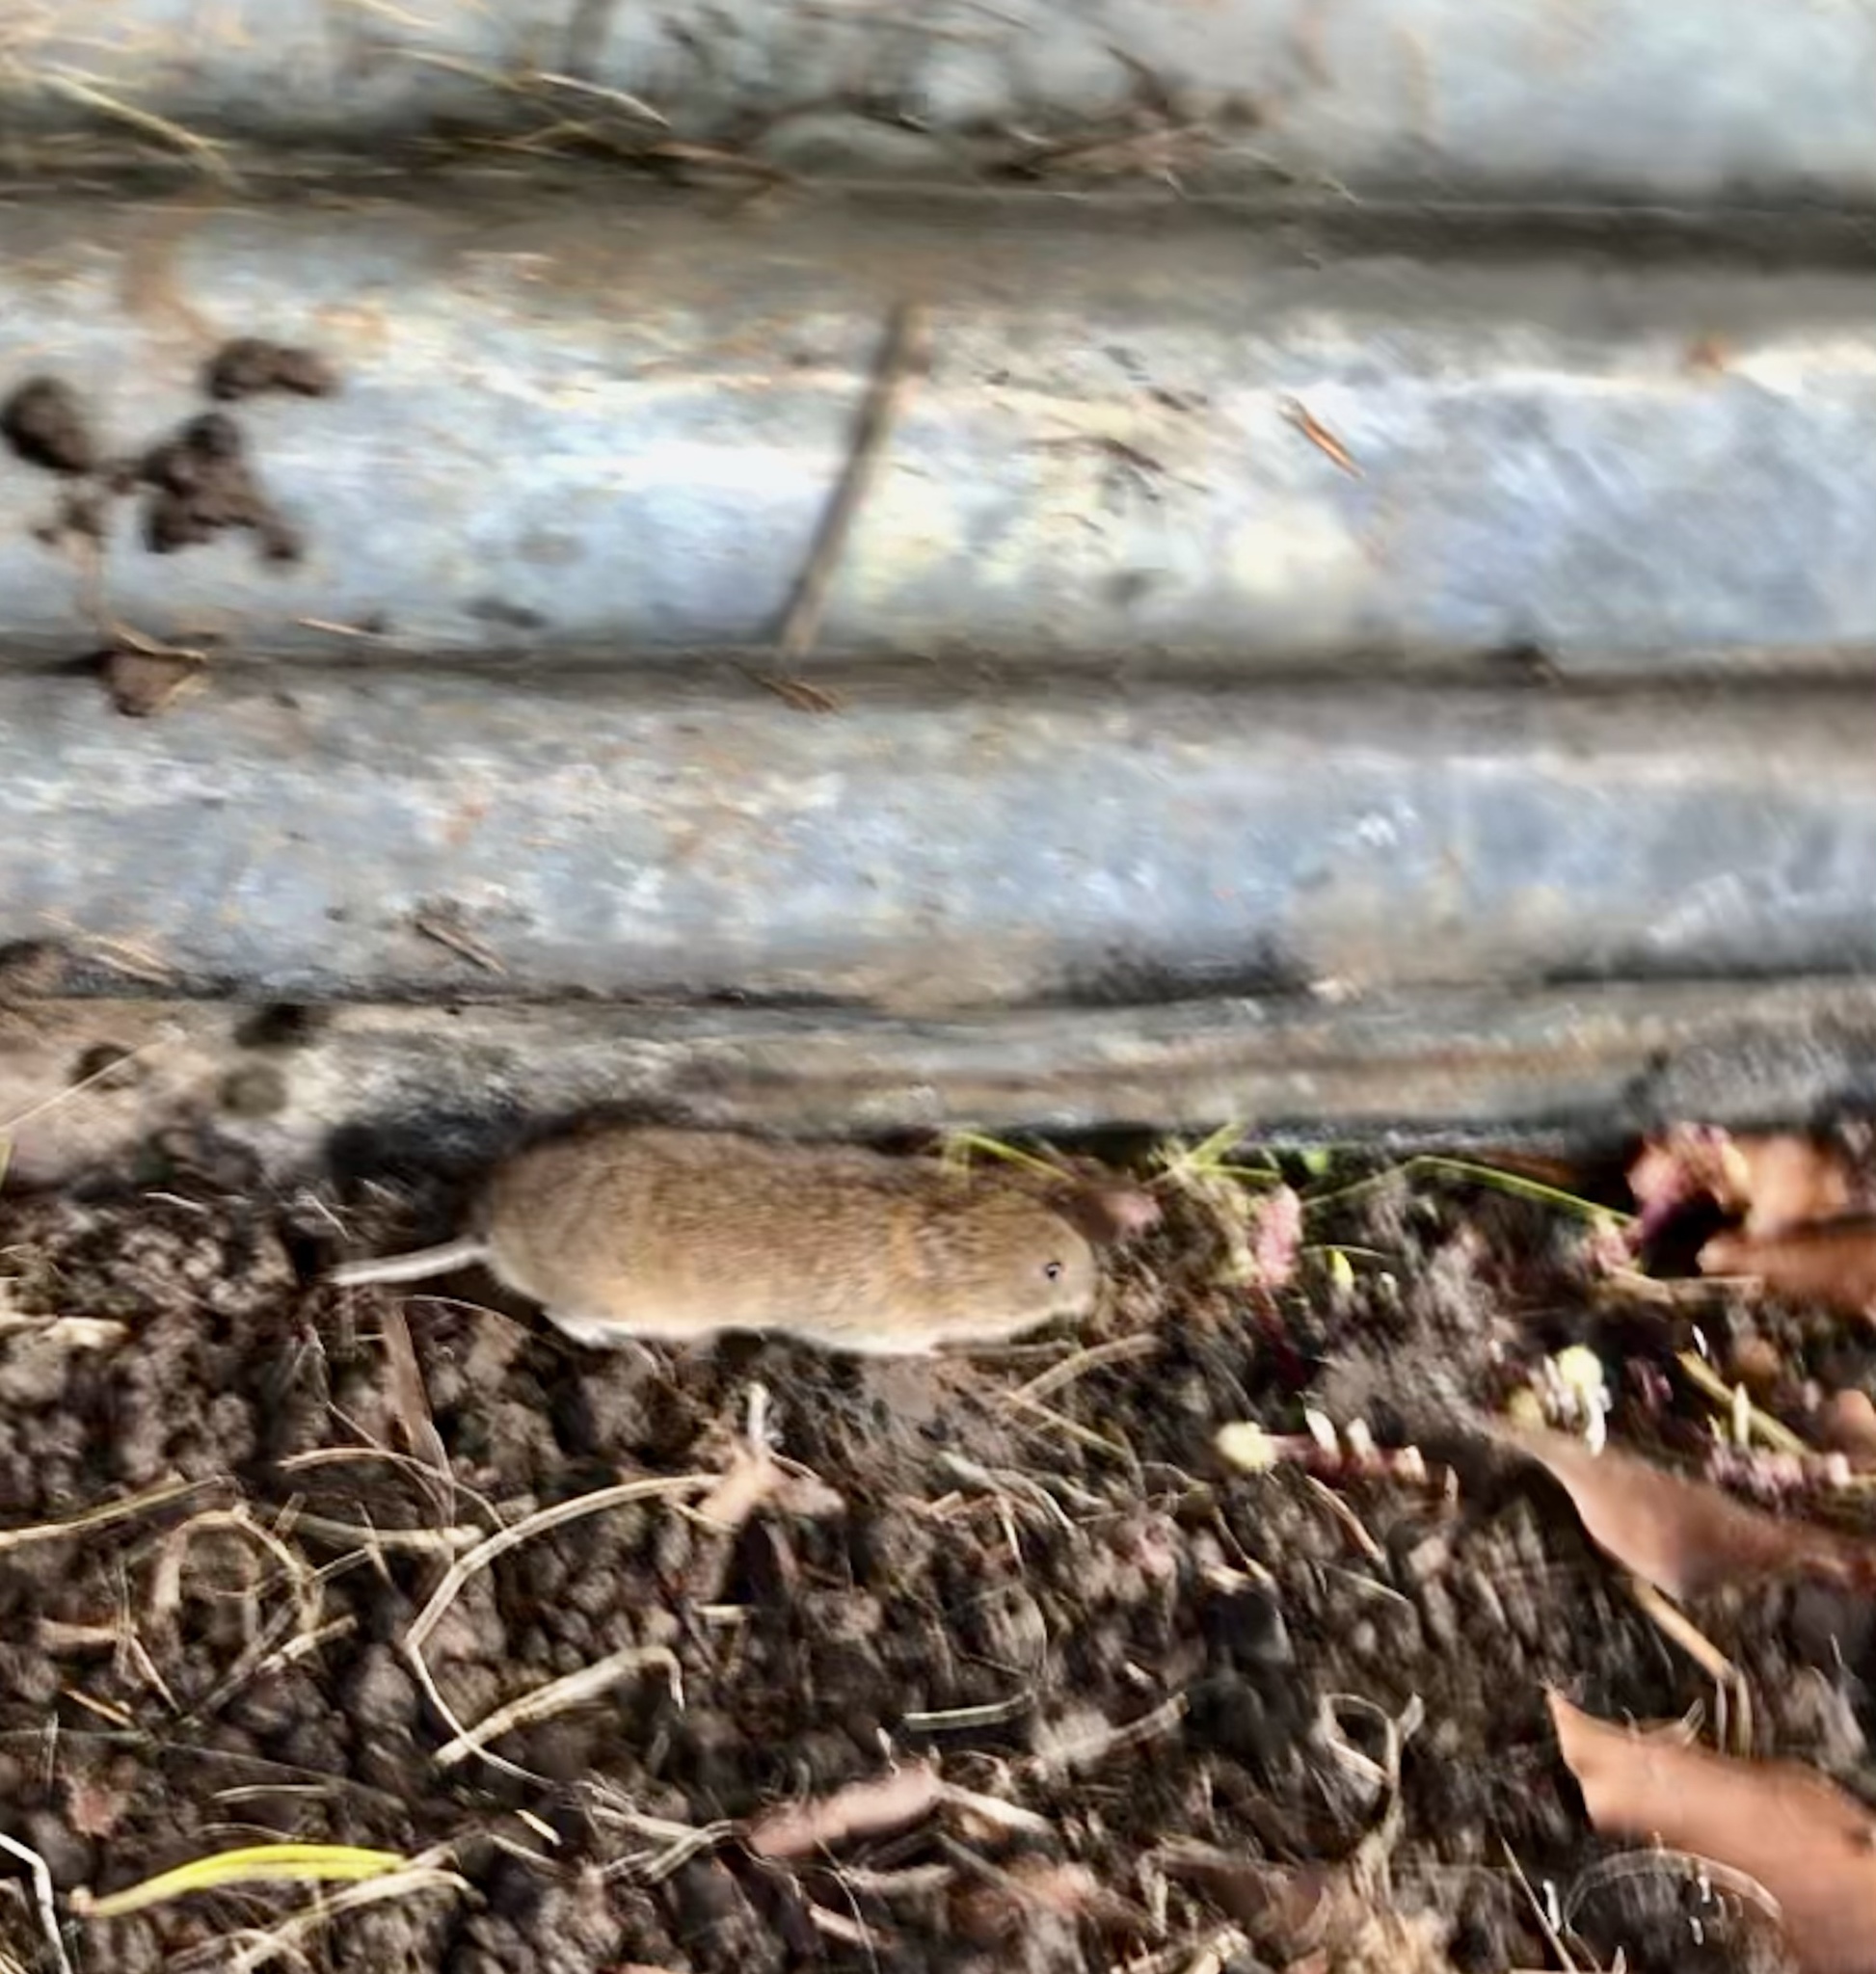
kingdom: Animalia
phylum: Chordata
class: Mammalia
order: Rodentia
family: Cricetidae
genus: Microtus
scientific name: Microtus agrestis
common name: Field vole
